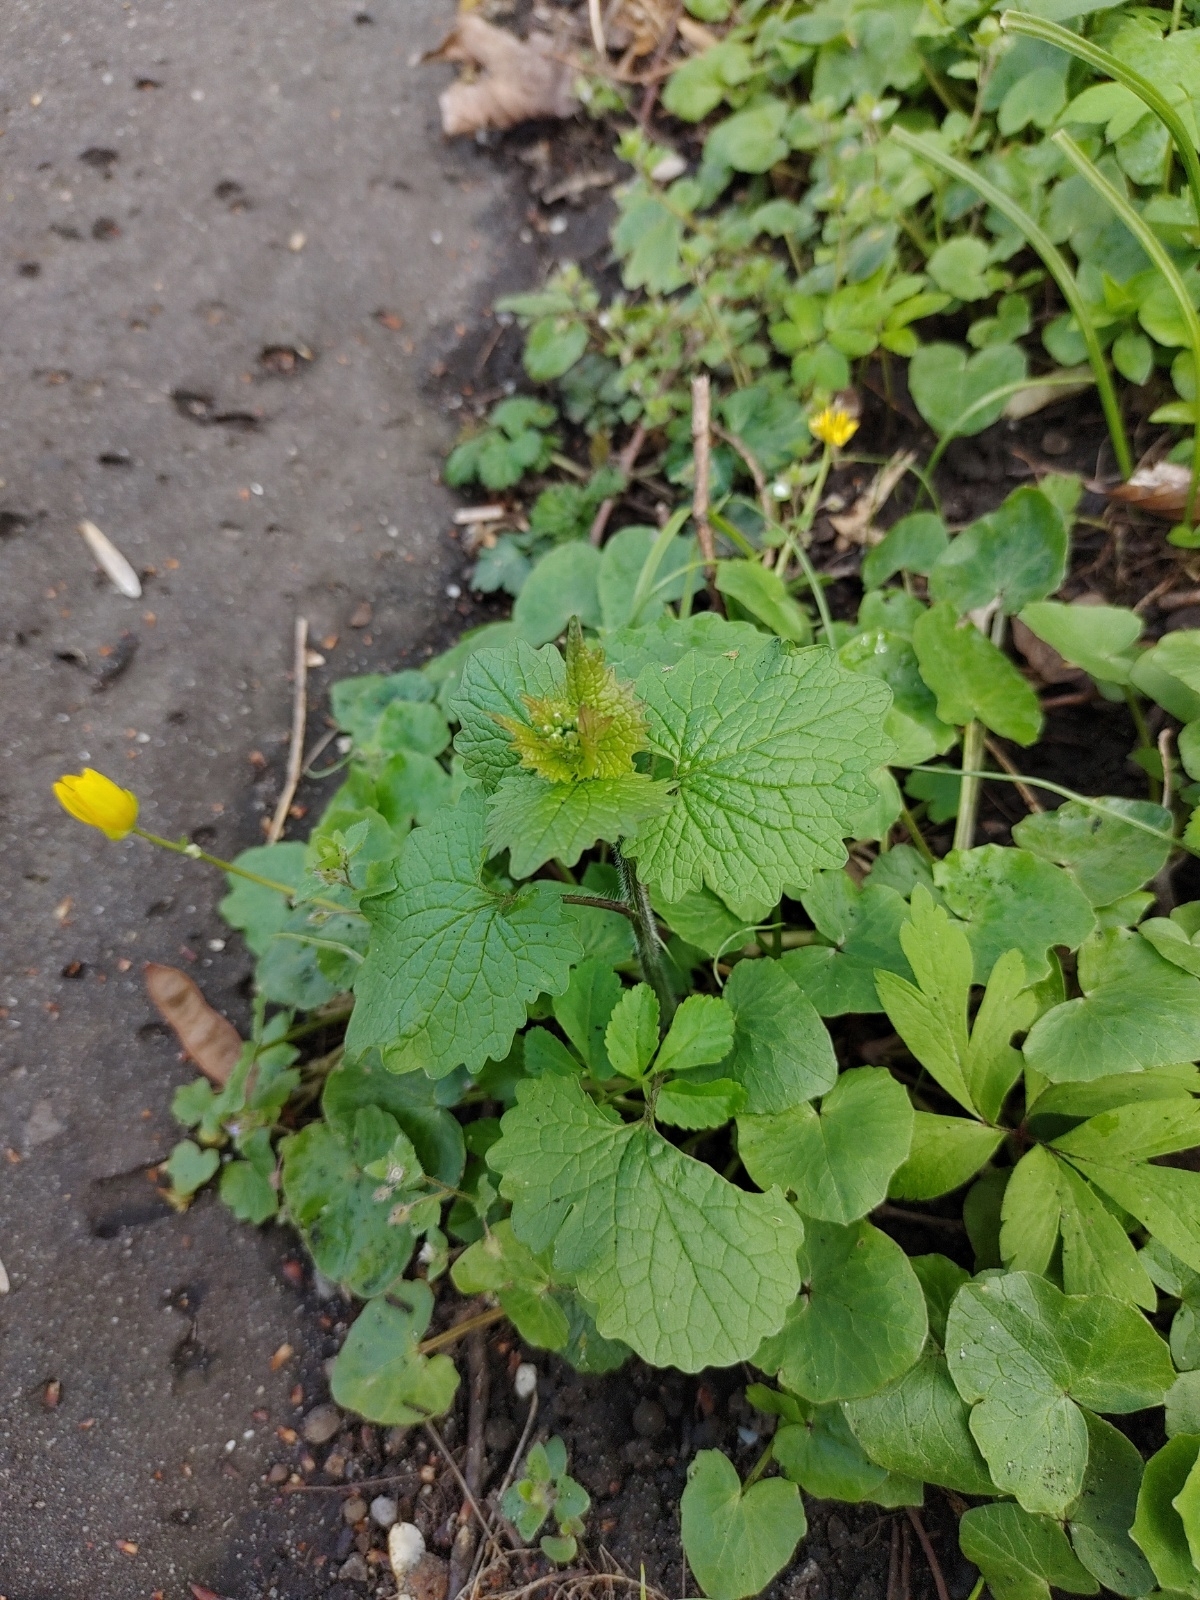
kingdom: Plantae
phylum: Tracheophyta
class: Magnoliopsida
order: Brassicales
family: Brassicaceae
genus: Alliaria
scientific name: Alliaria petiolata
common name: Garlic mustard
